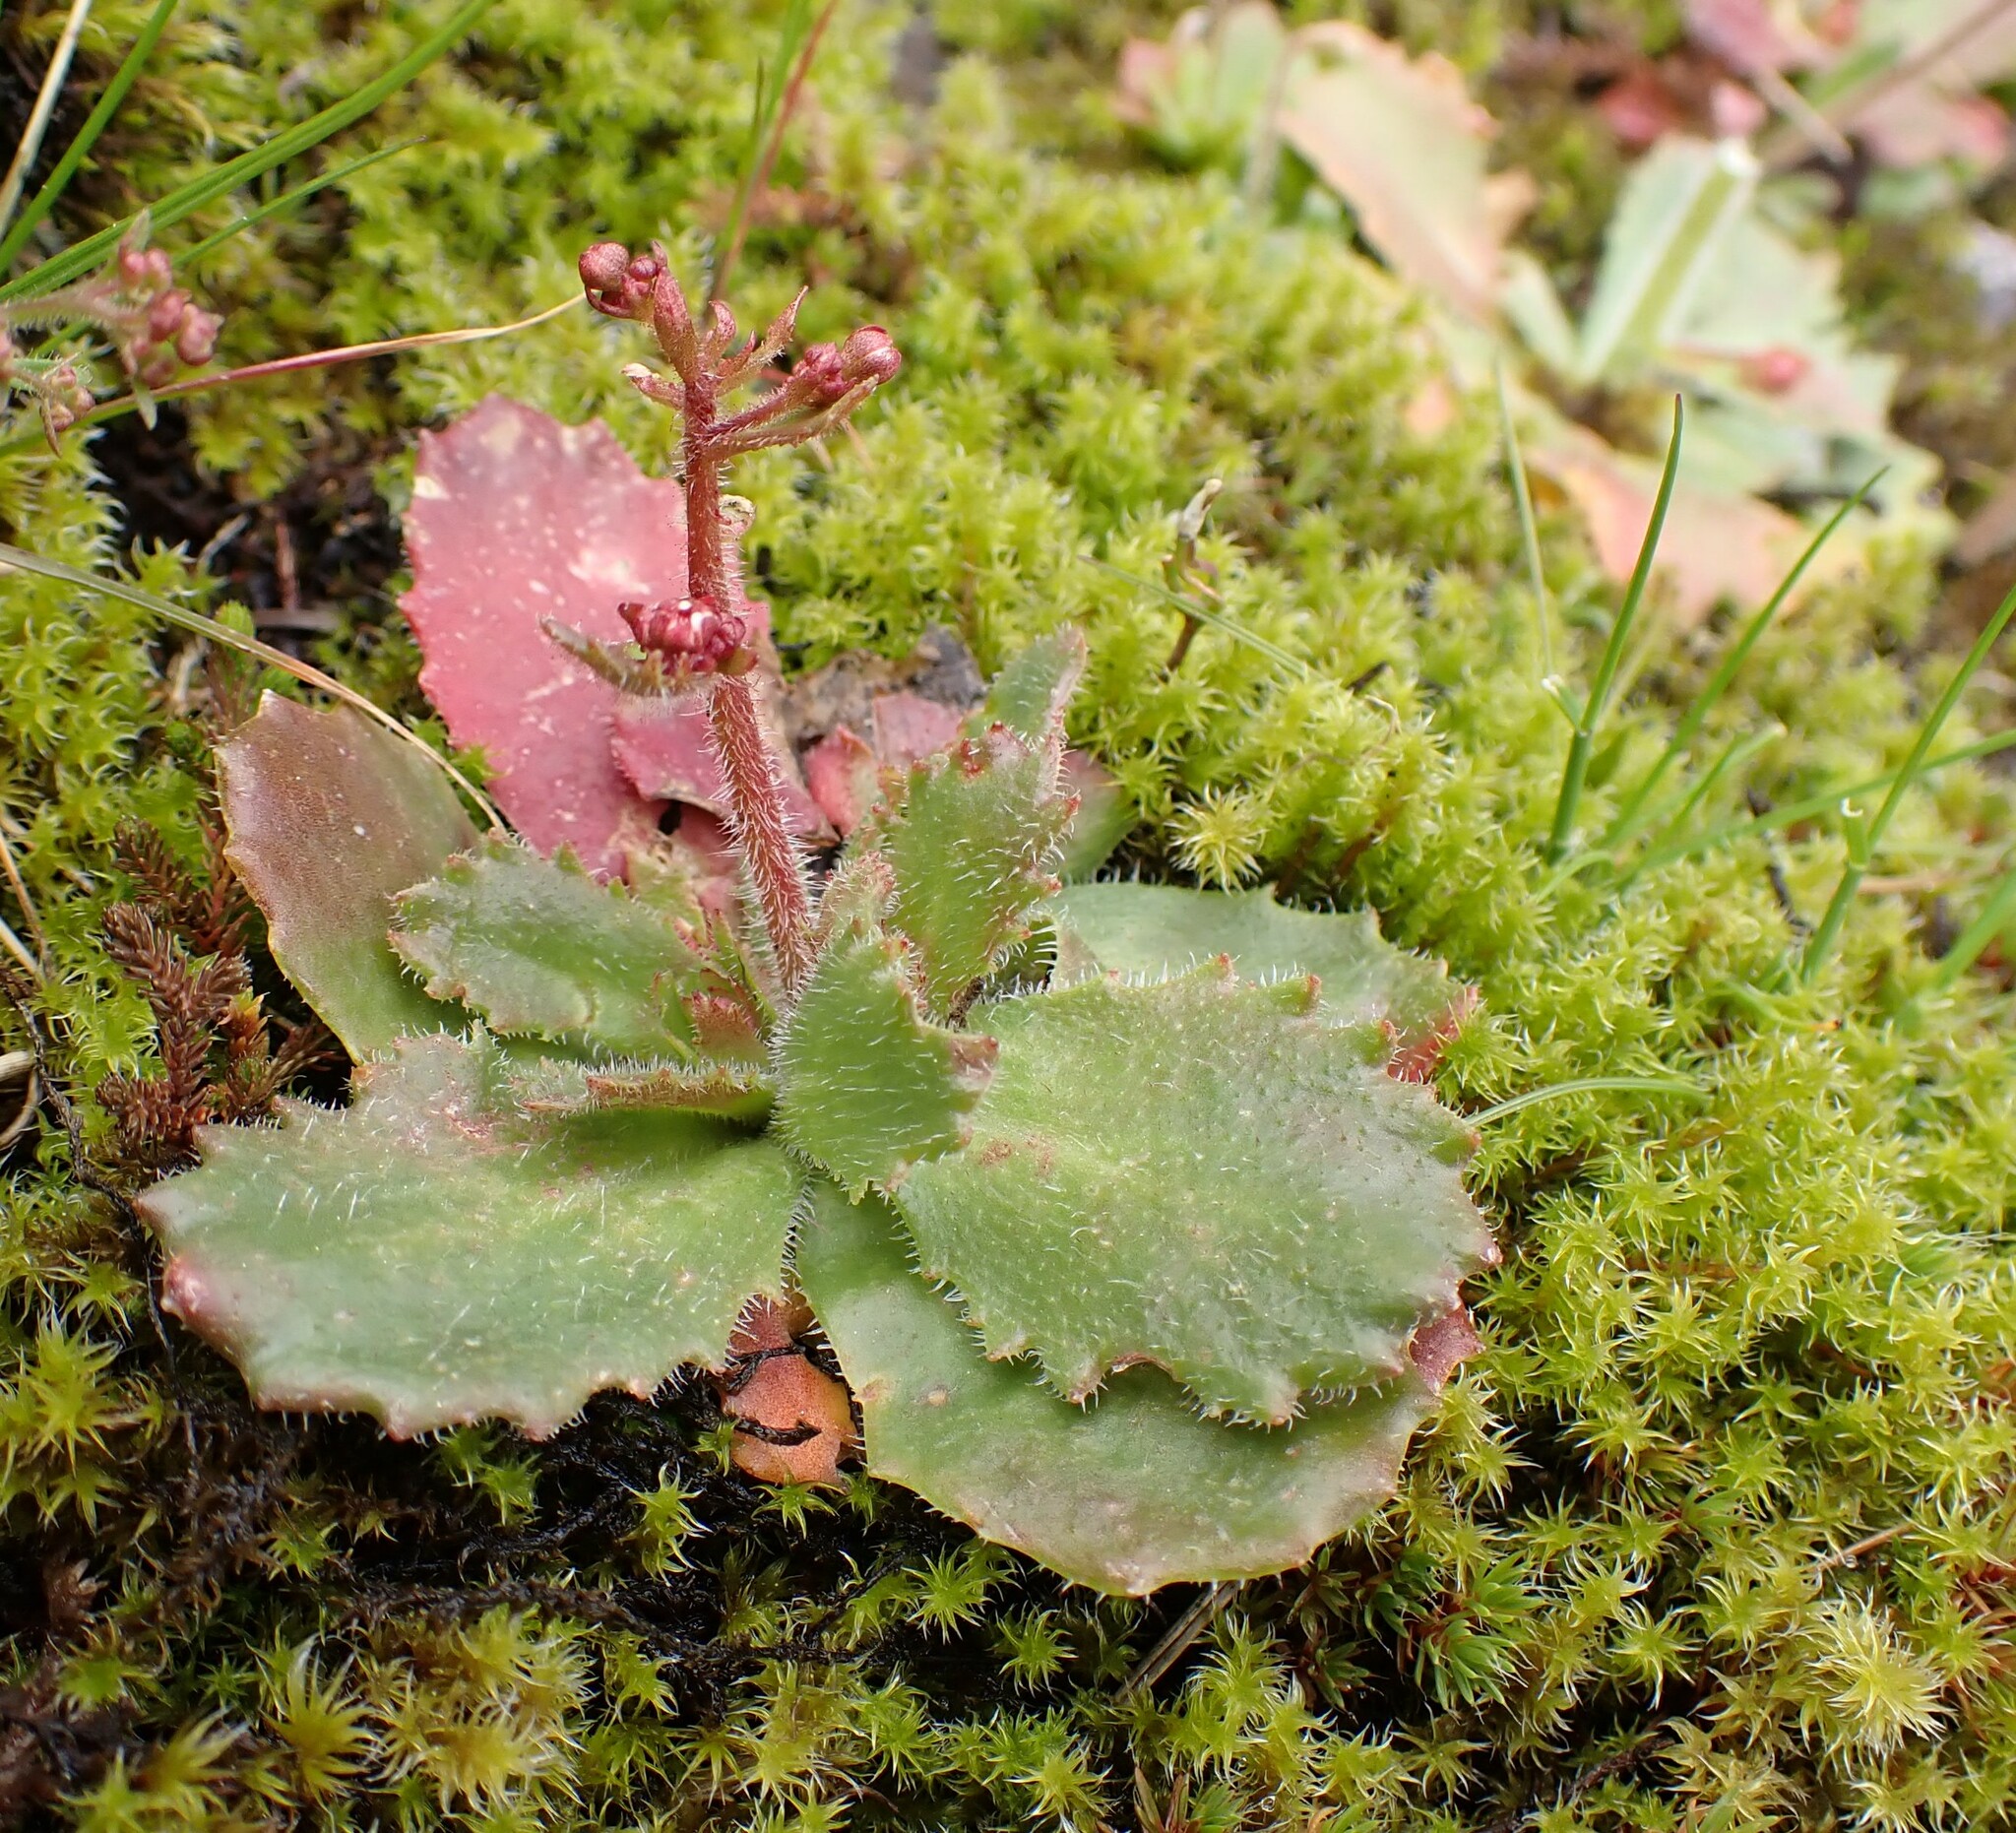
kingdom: Plantae
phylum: Tracheophyta
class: Magnoliopsida
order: Saxifragales
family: Saxifragaceae
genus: Micranthes
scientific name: Micranthes ferruginea
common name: Rusty saxifrage
